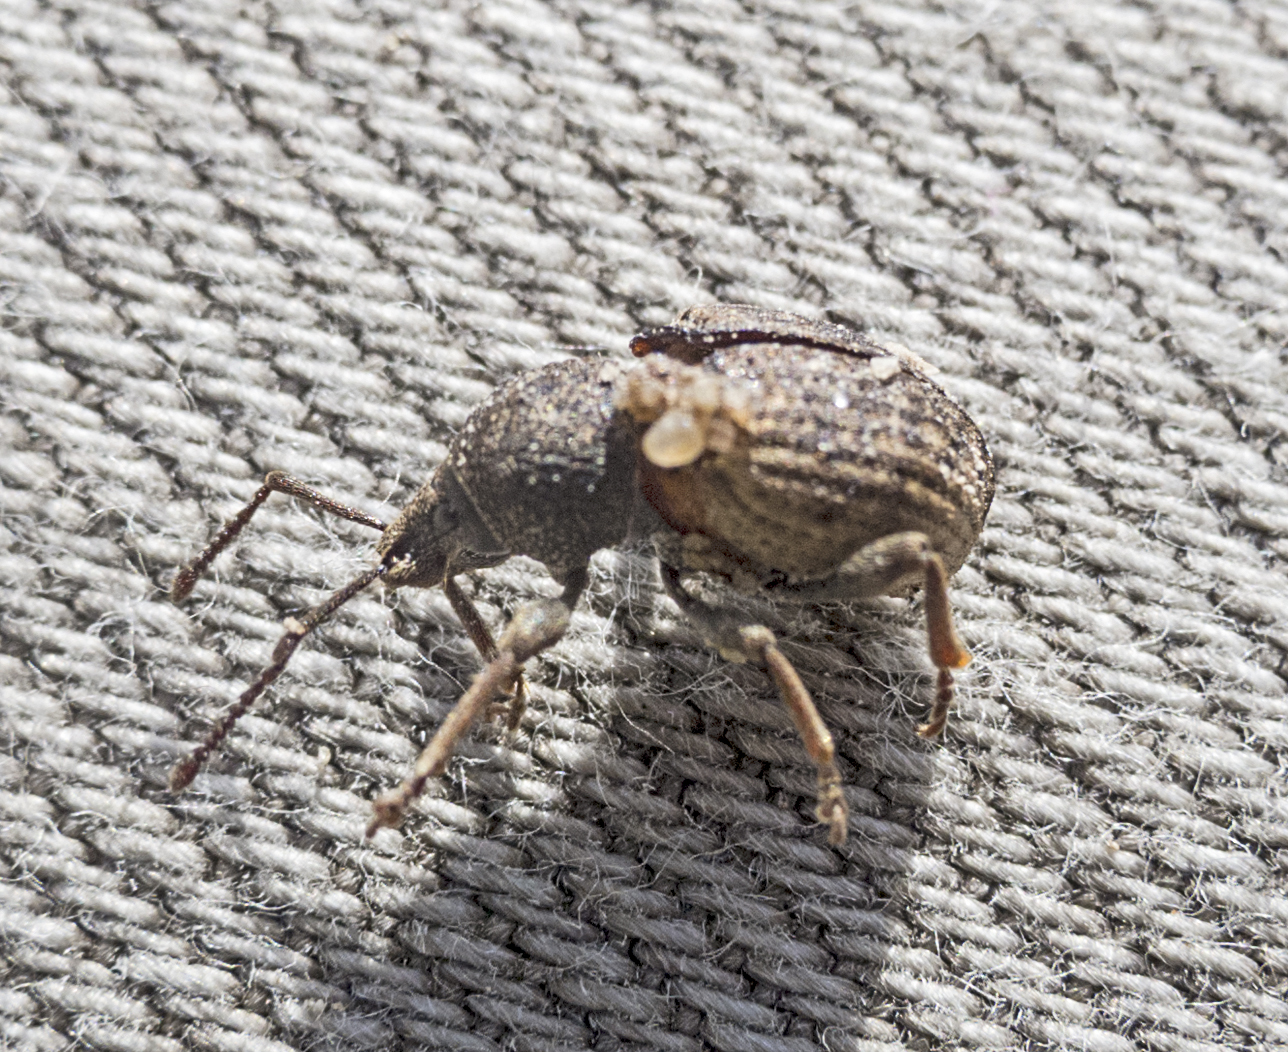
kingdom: Animalia
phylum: Arthropoda
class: Insecta
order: Coleoptera
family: Curculionidae
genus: Otiorhynchus
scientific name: Otiorhynchus raucus
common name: Weevil
